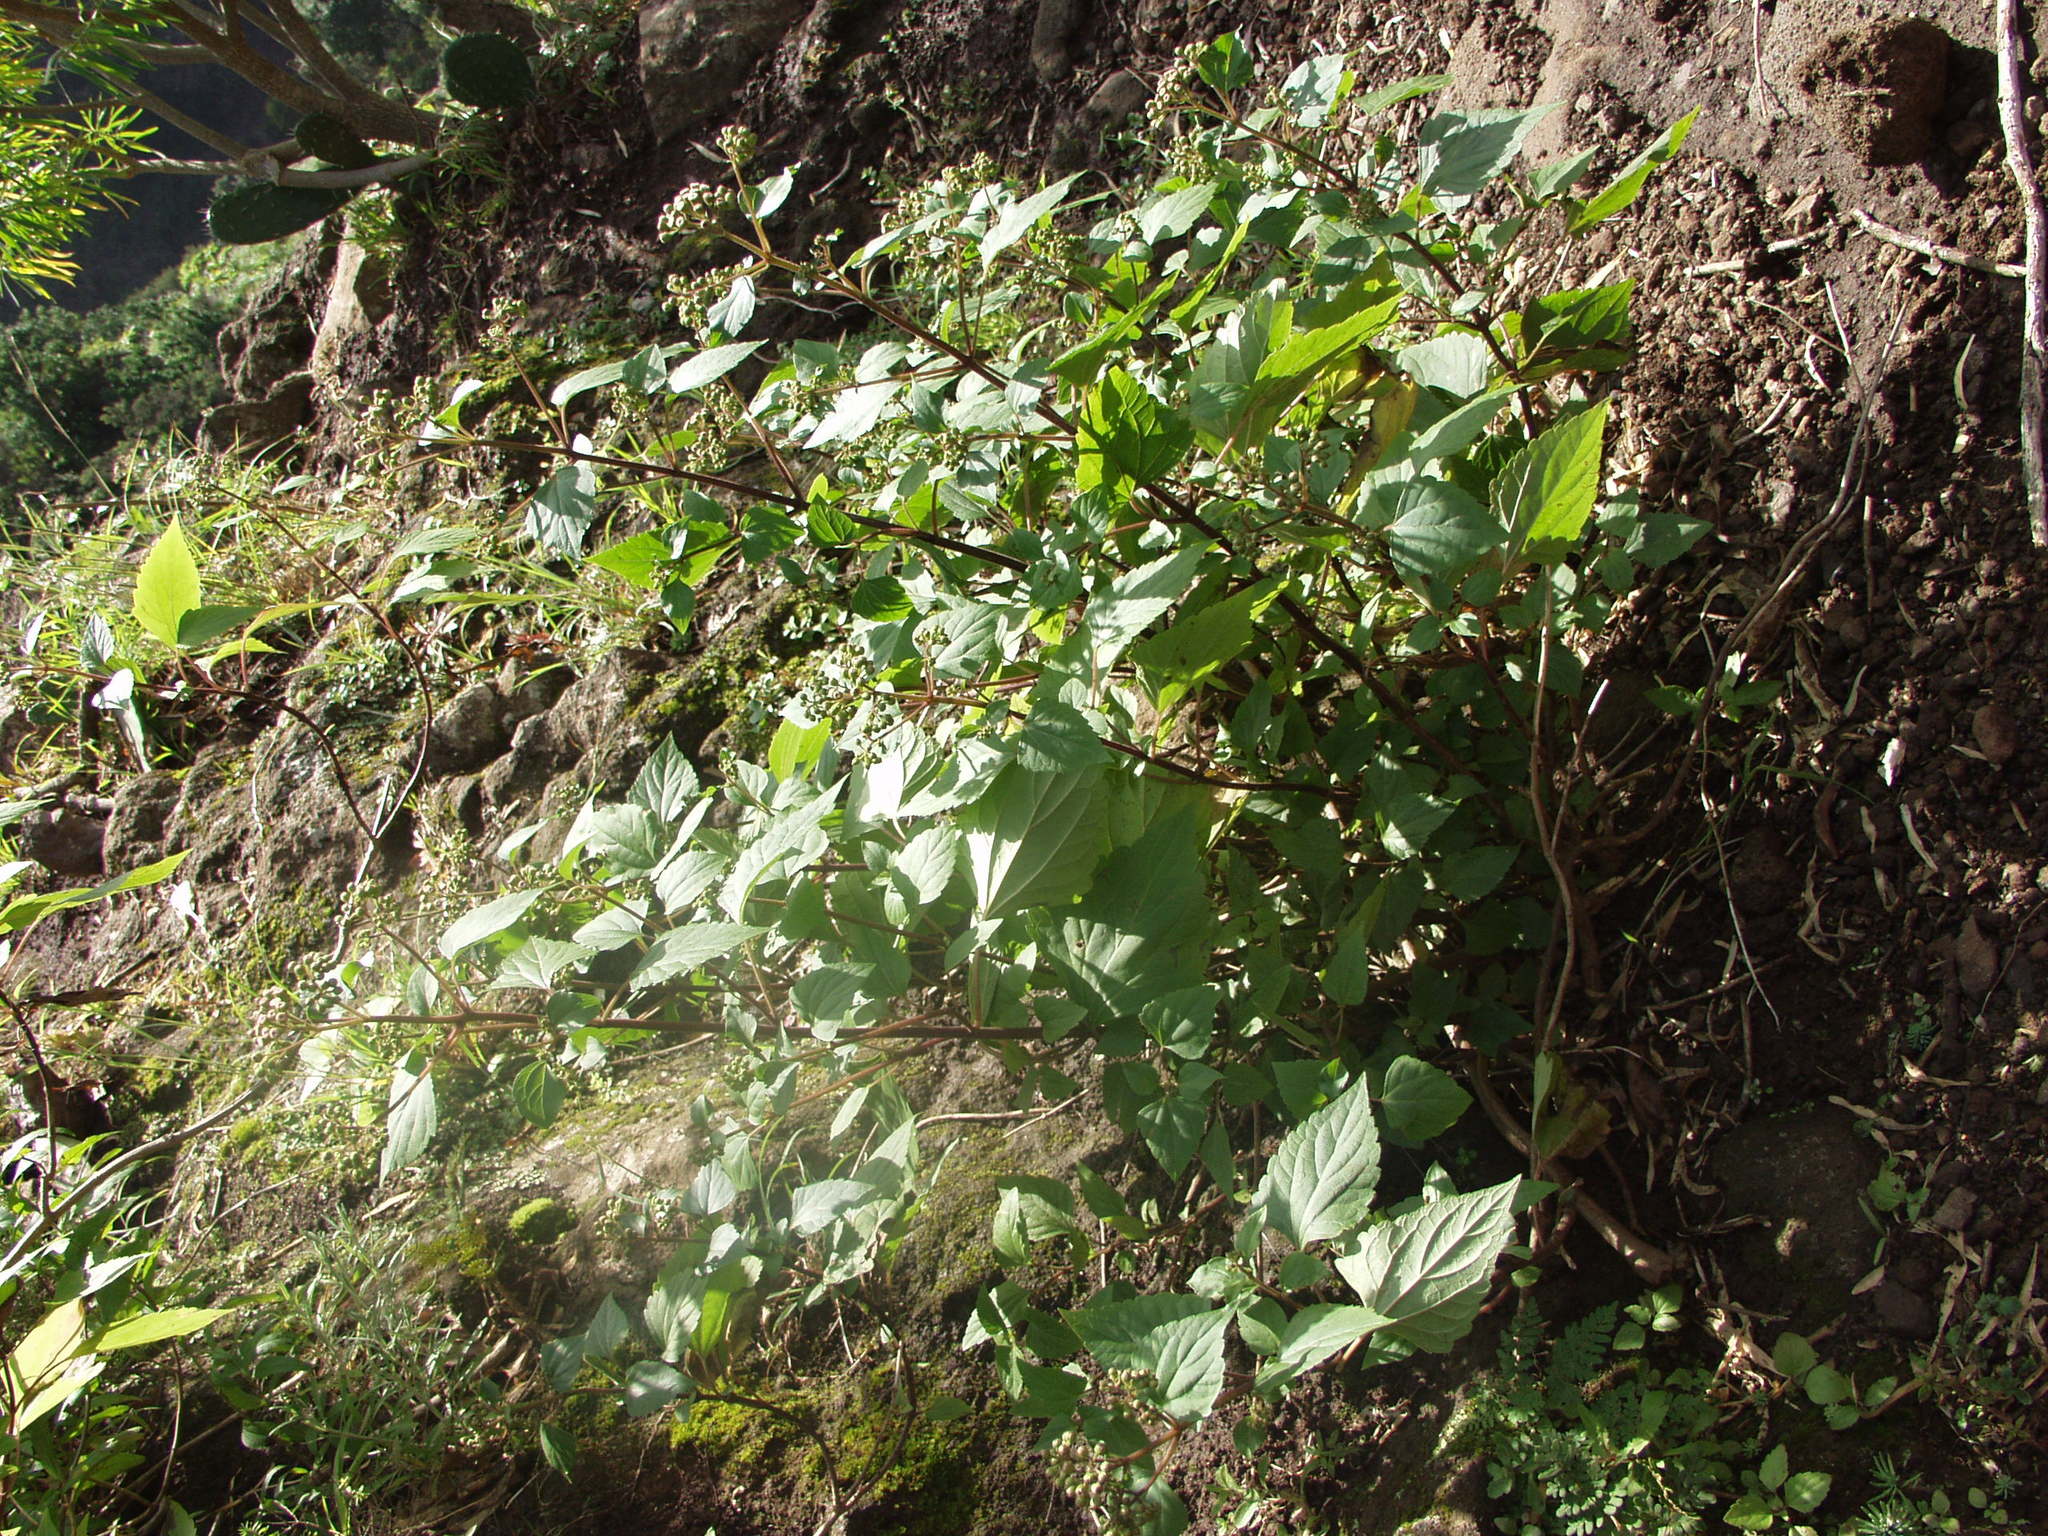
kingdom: Plantae
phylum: Tracheophyta
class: Magnoliopsida
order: Asterales
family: Asteraceae
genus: Ageratina
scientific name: Ageratina adenophora
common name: Sticky snakeroot
